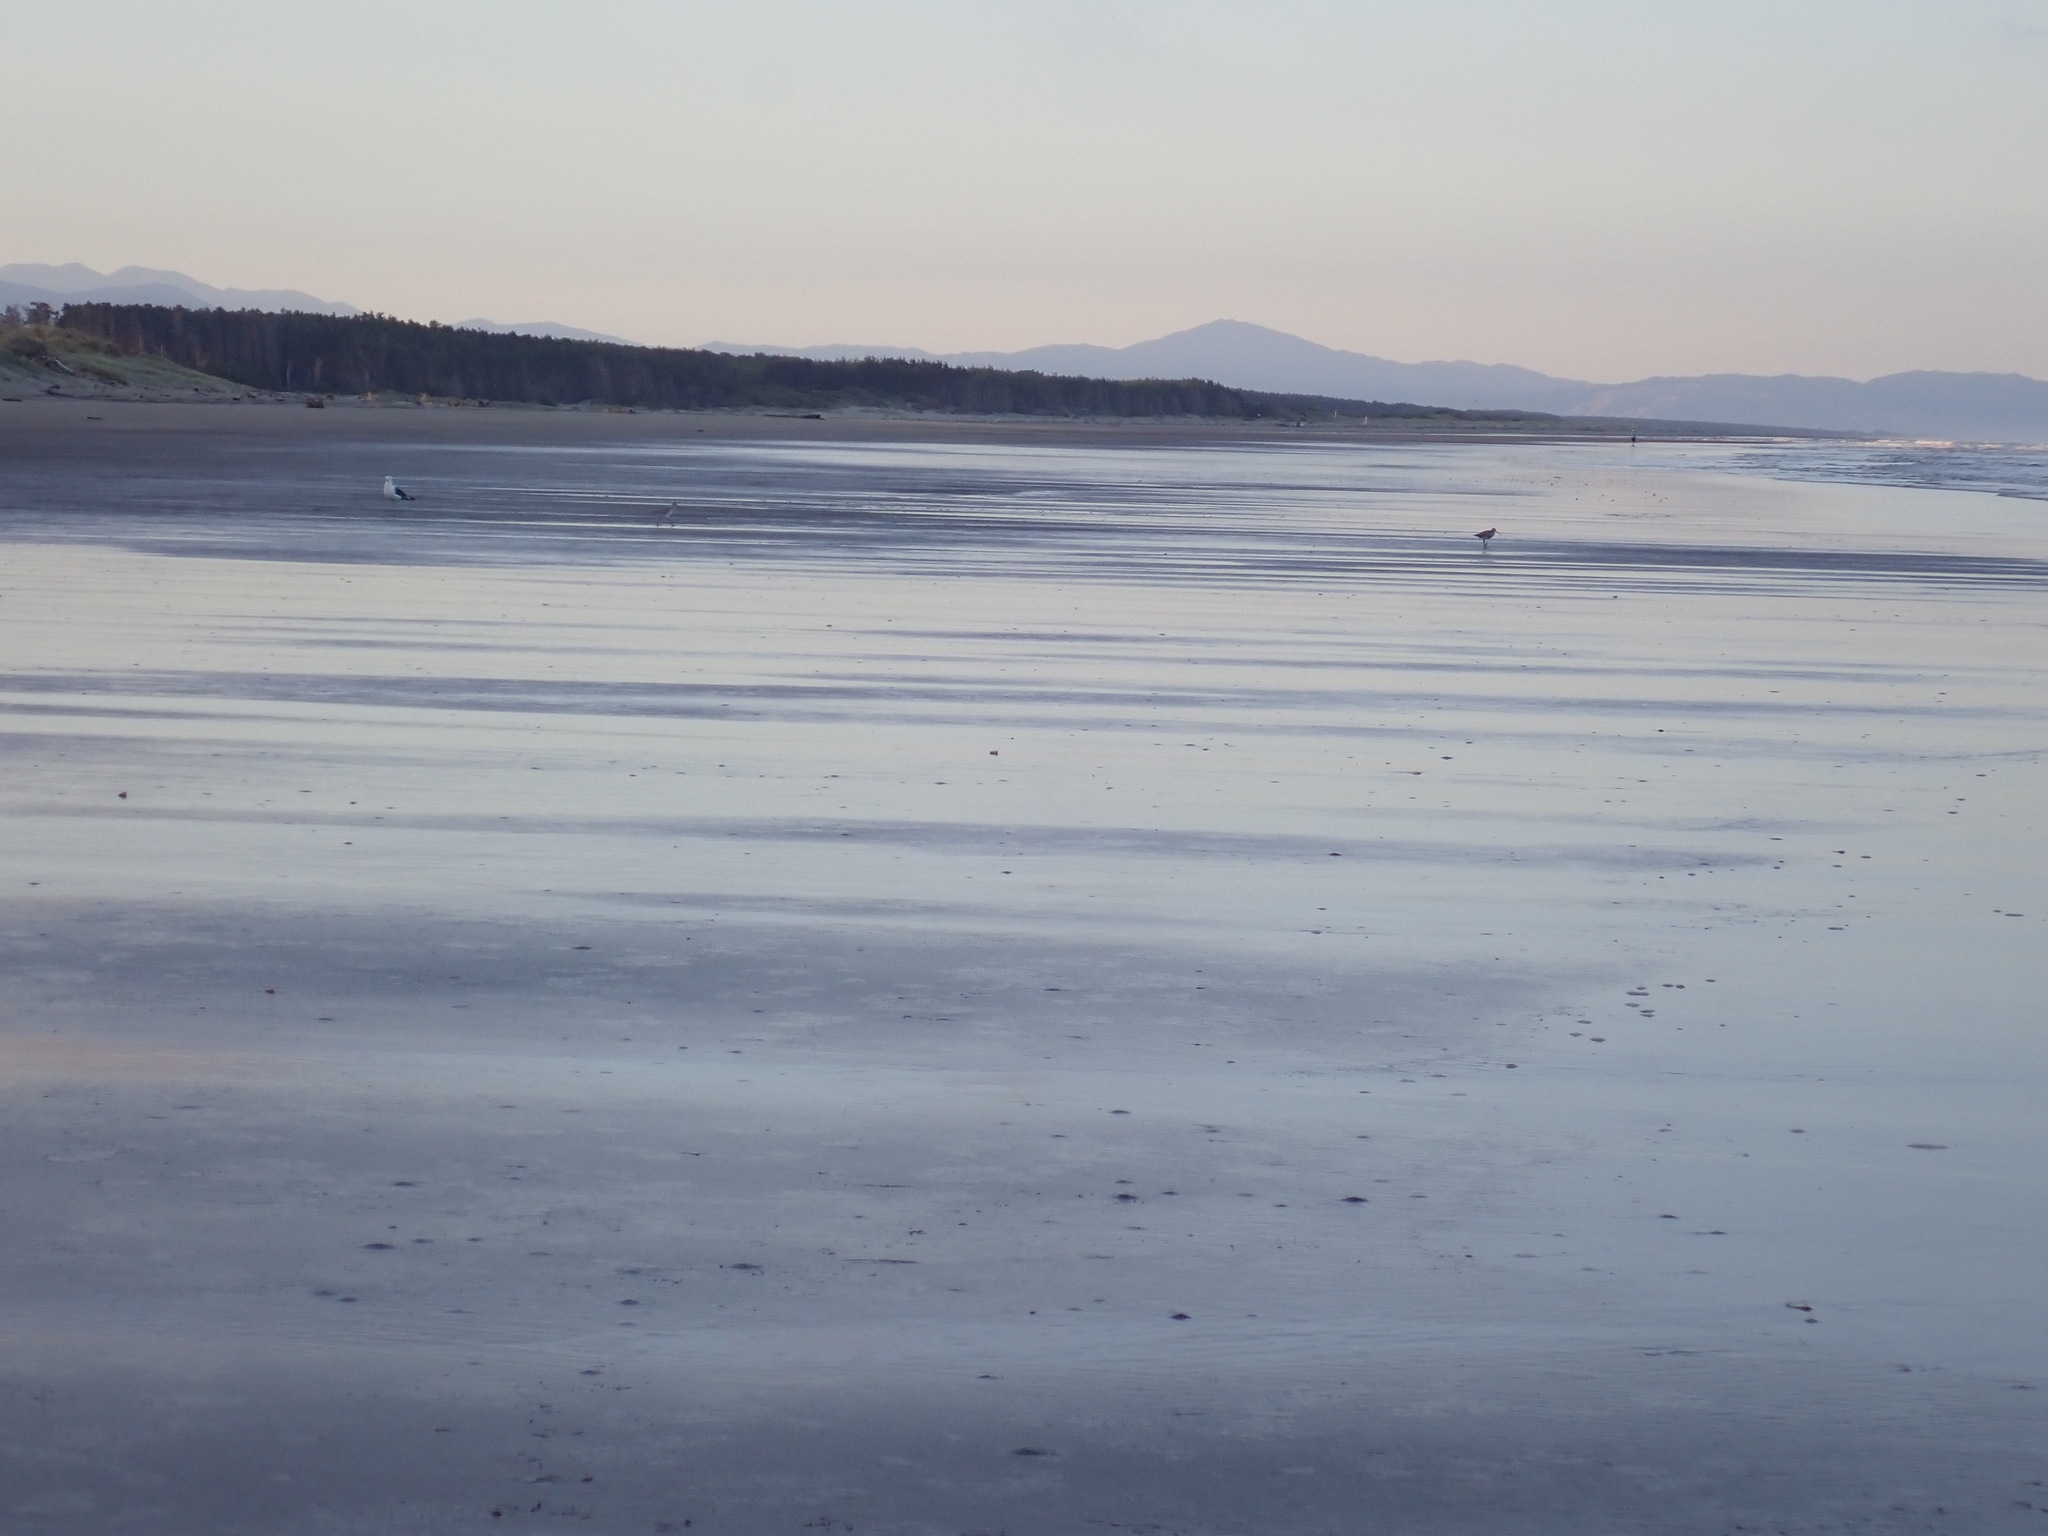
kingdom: Animalia
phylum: Chordata
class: Aves
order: Charadriiformes
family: Scolopacidae
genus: Limosa
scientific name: Limosa lapponica
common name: Bar-tailed godwit
